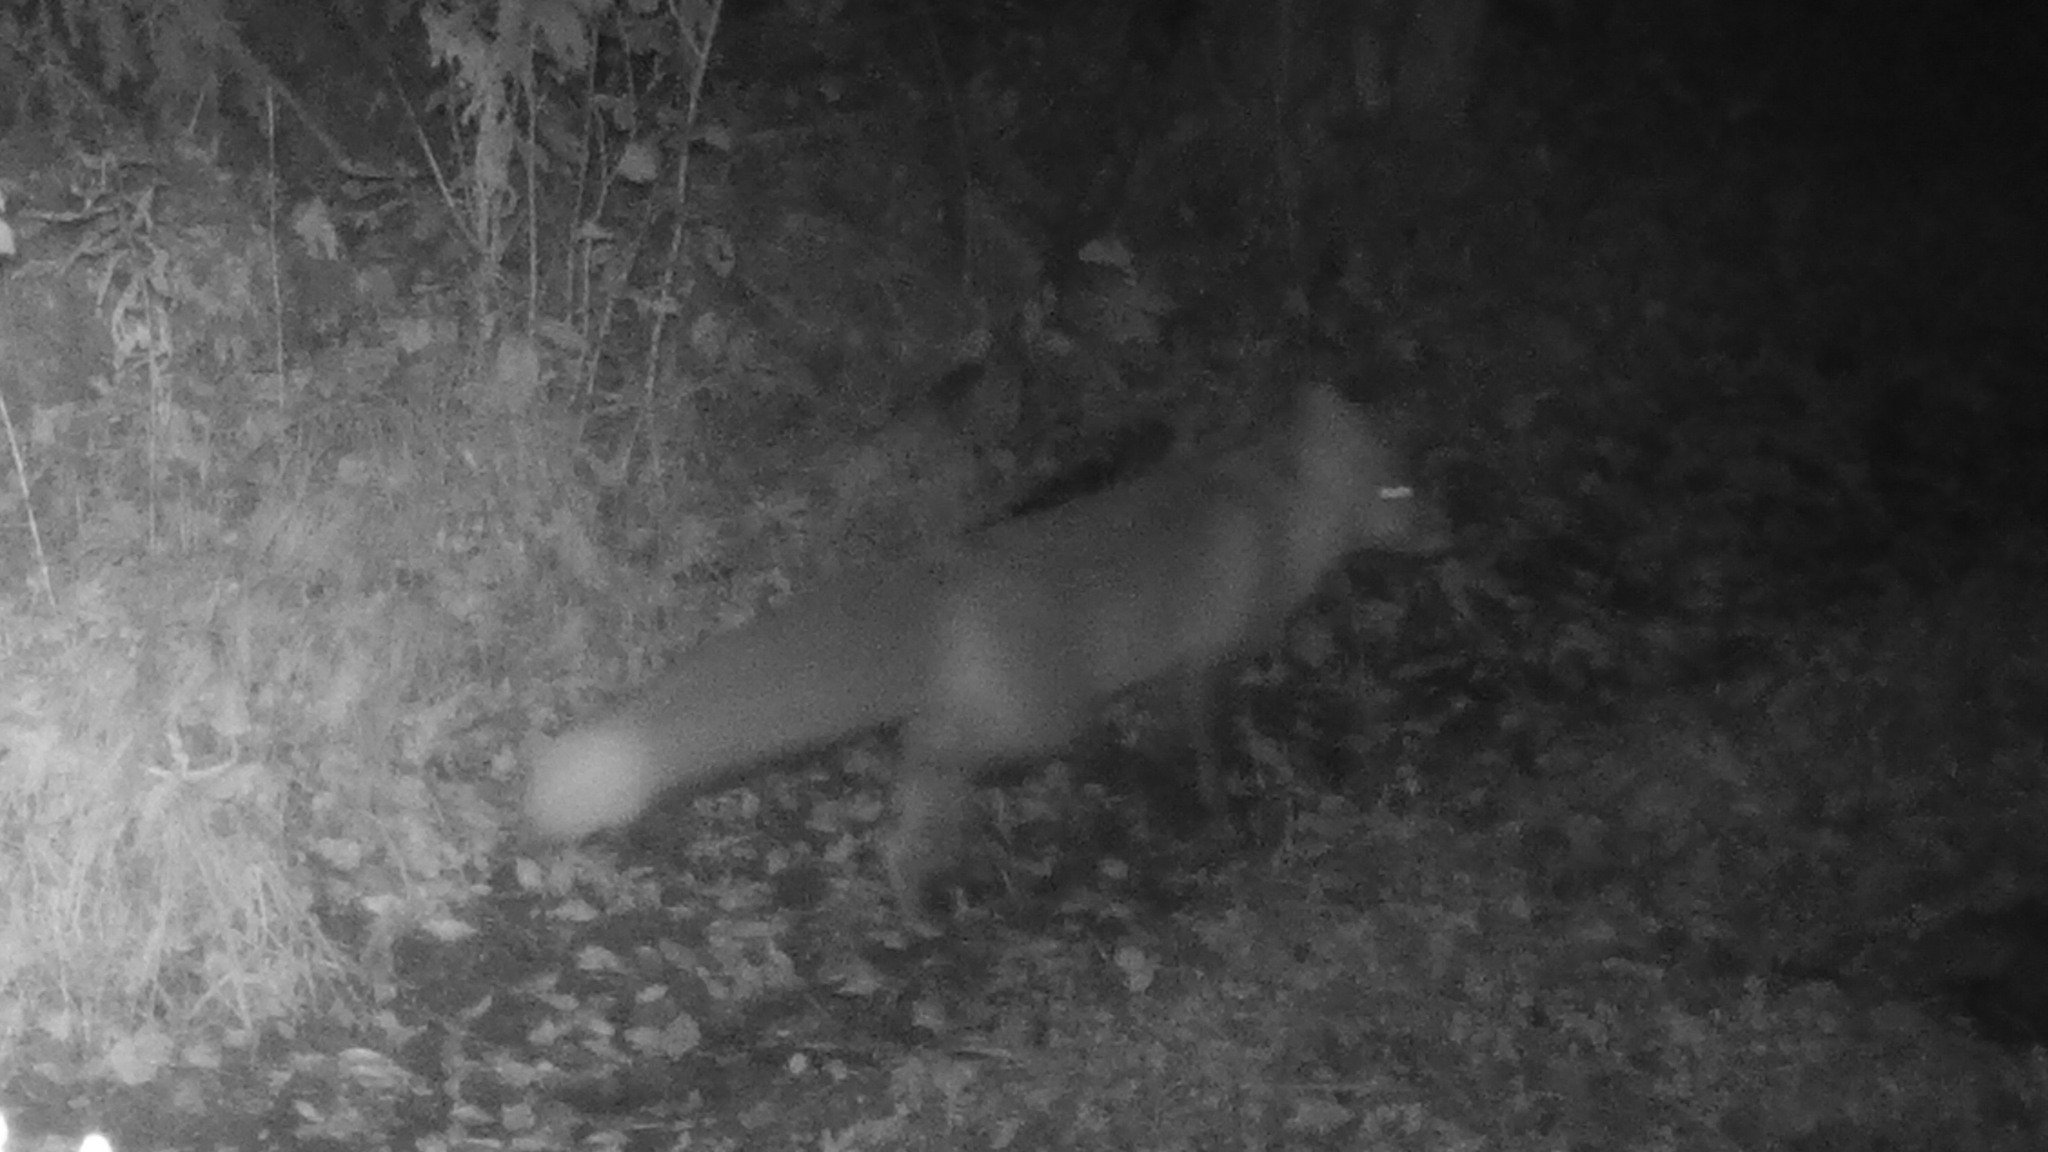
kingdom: Animalia
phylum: Chordata
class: Mammalia
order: Carnivora
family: Canidae
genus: Vulpes
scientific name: Vulpes vulpes
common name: Red fox
